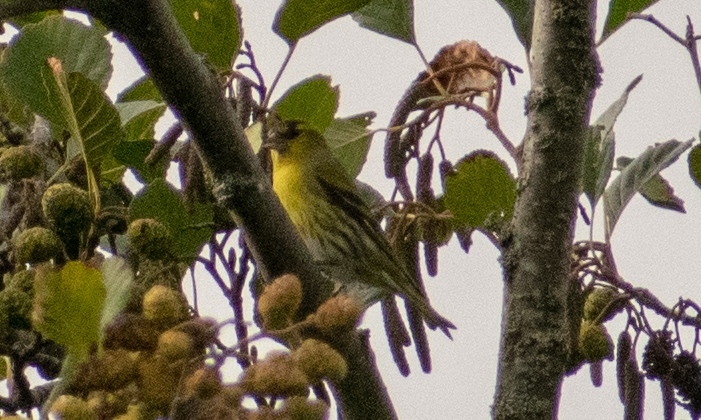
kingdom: Animalia
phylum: Chordata
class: Aves
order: Passeriformes
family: Fringillidae
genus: Spinus
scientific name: Spinus spinus
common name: Eurasian siskin
